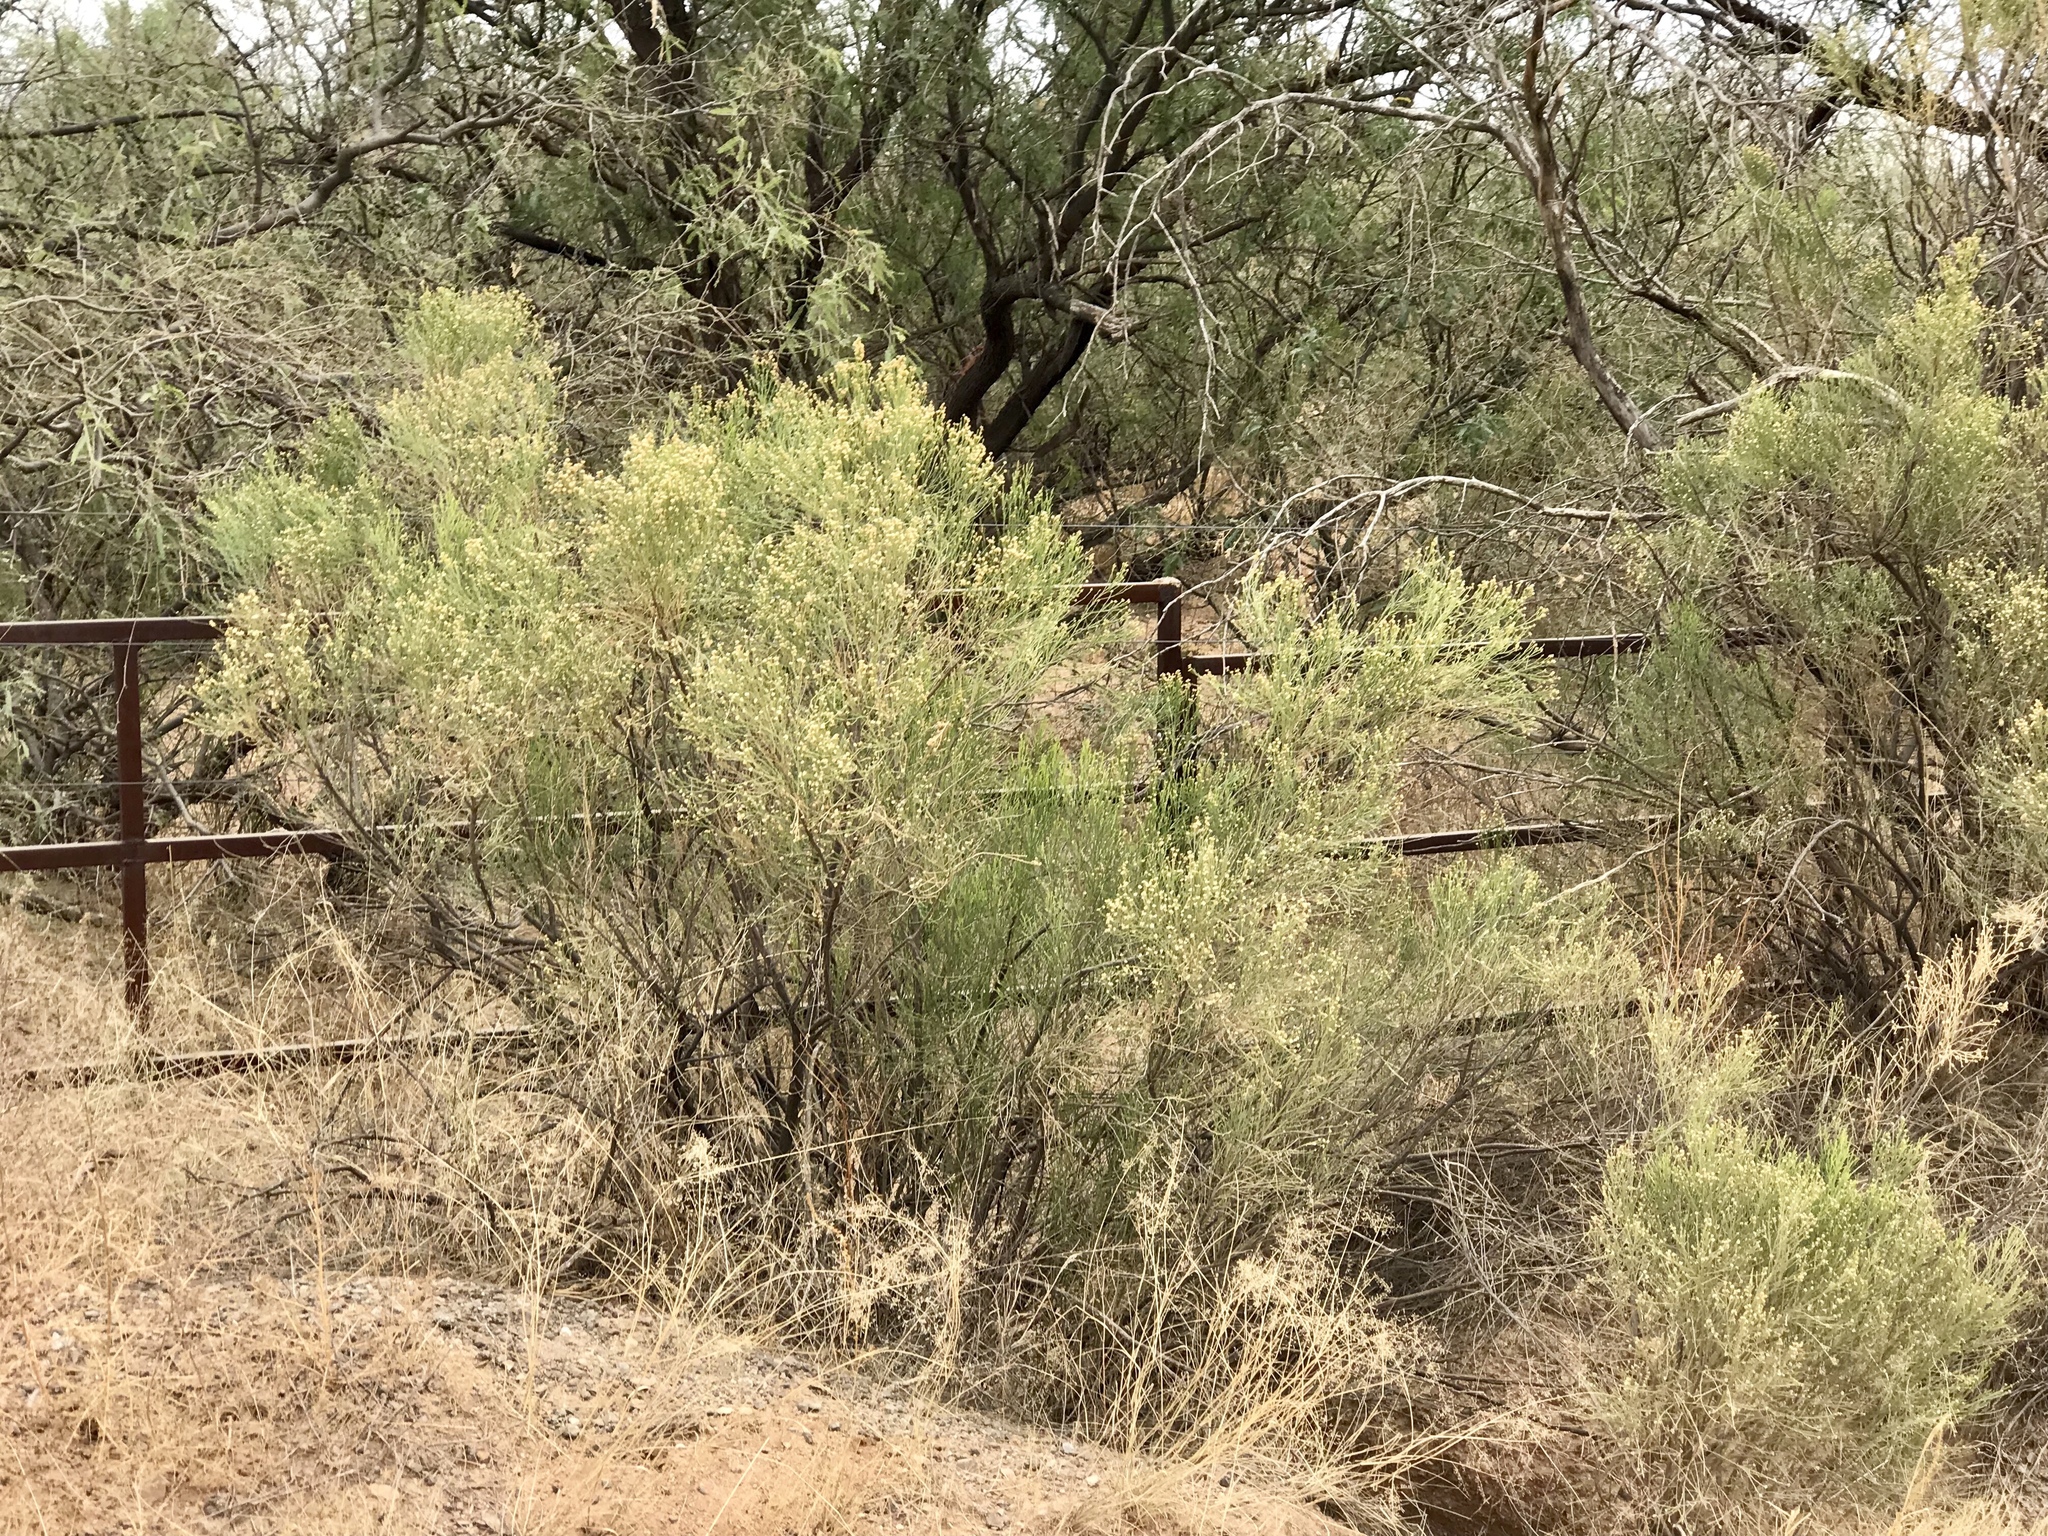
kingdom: Plantae
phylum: Tracheophyta
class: Magnoliopsida
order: Asterales
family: Asteraceae
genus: Baccharis
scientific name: Baccharis sarothroides
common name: Desert-broom
